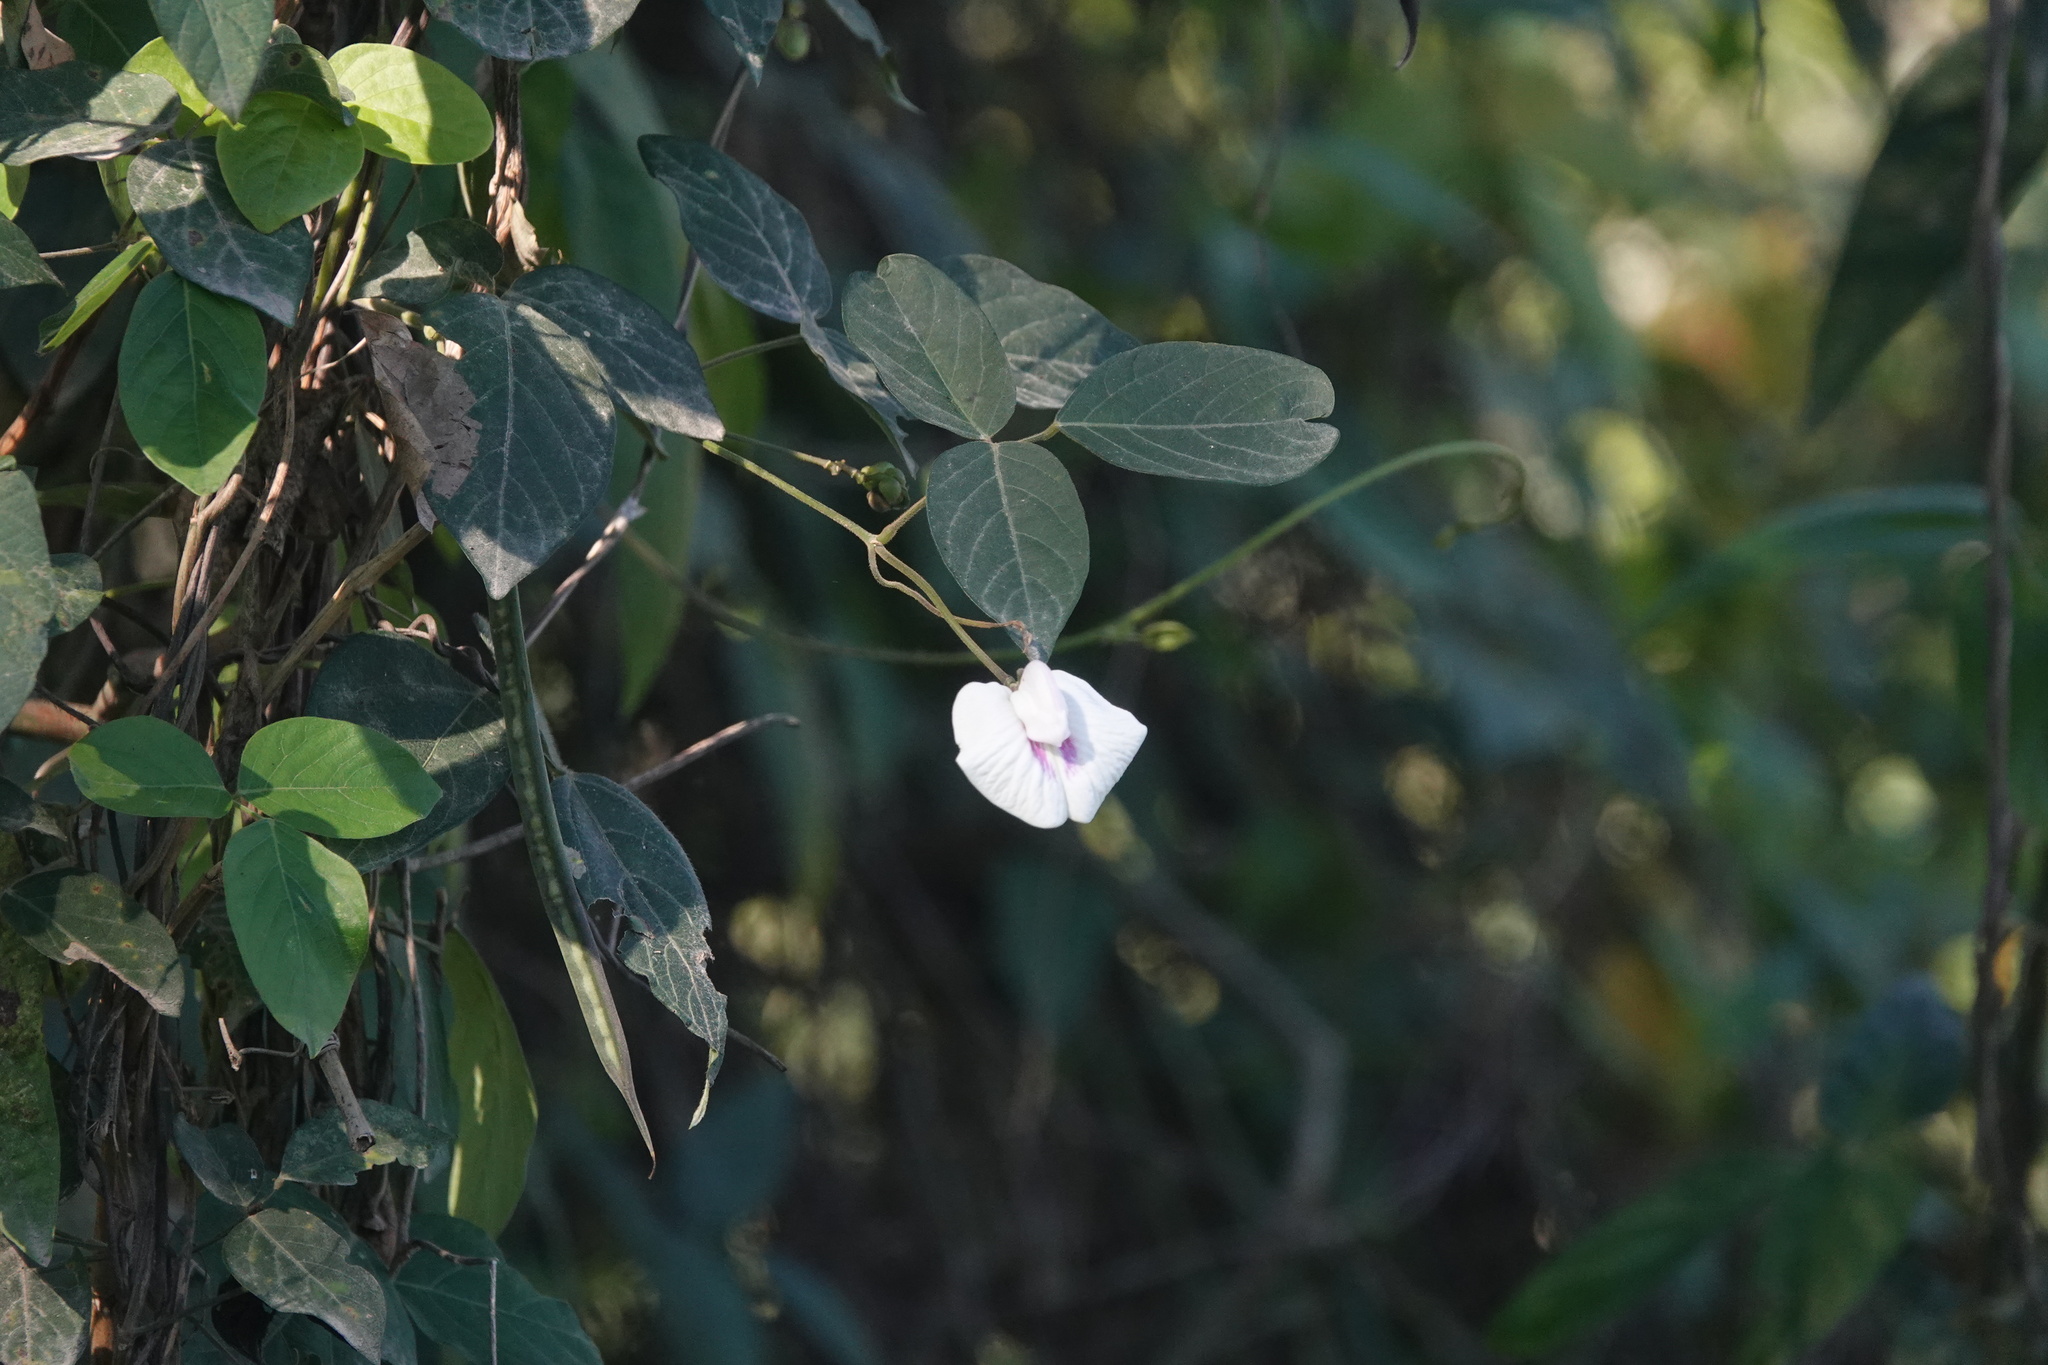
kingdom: Plantae
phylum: Tracheophyta
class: Magnoliopsida
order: Fabales
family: Fabaceae
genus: Centrosema
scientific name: Centrosema pubescens
